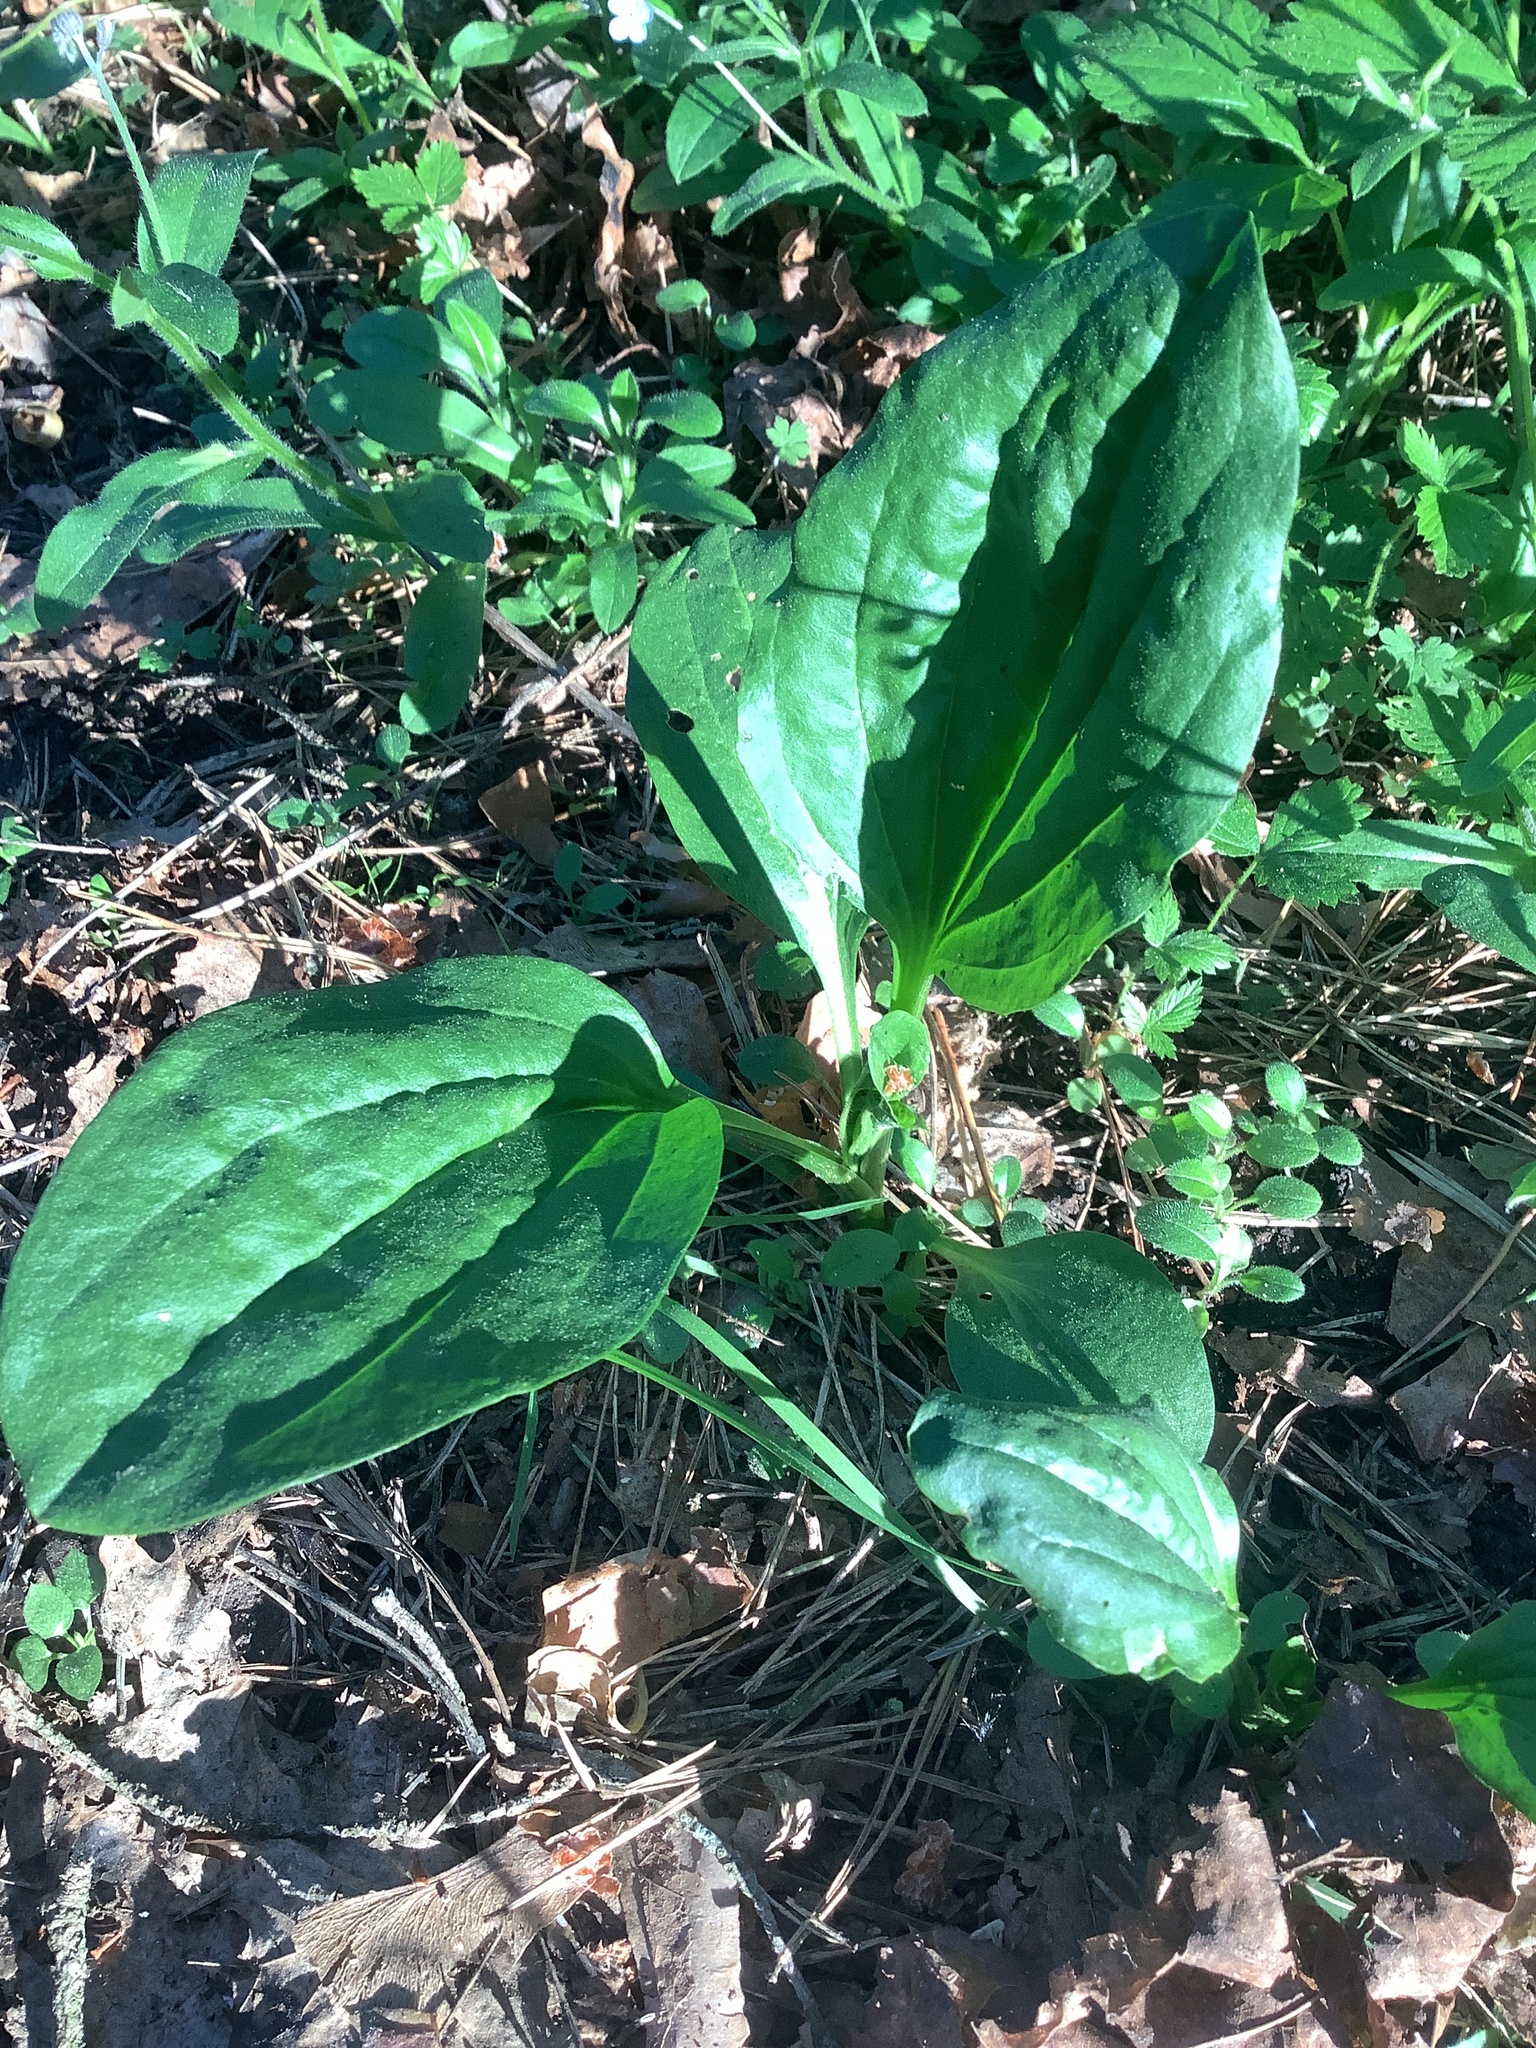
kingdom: Plantae
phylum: Tracheophyta
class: Magnoliopsida
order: Lamiales
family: Plantaginaceae
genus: Plantago
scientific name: Plantago major
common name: Common plantain
